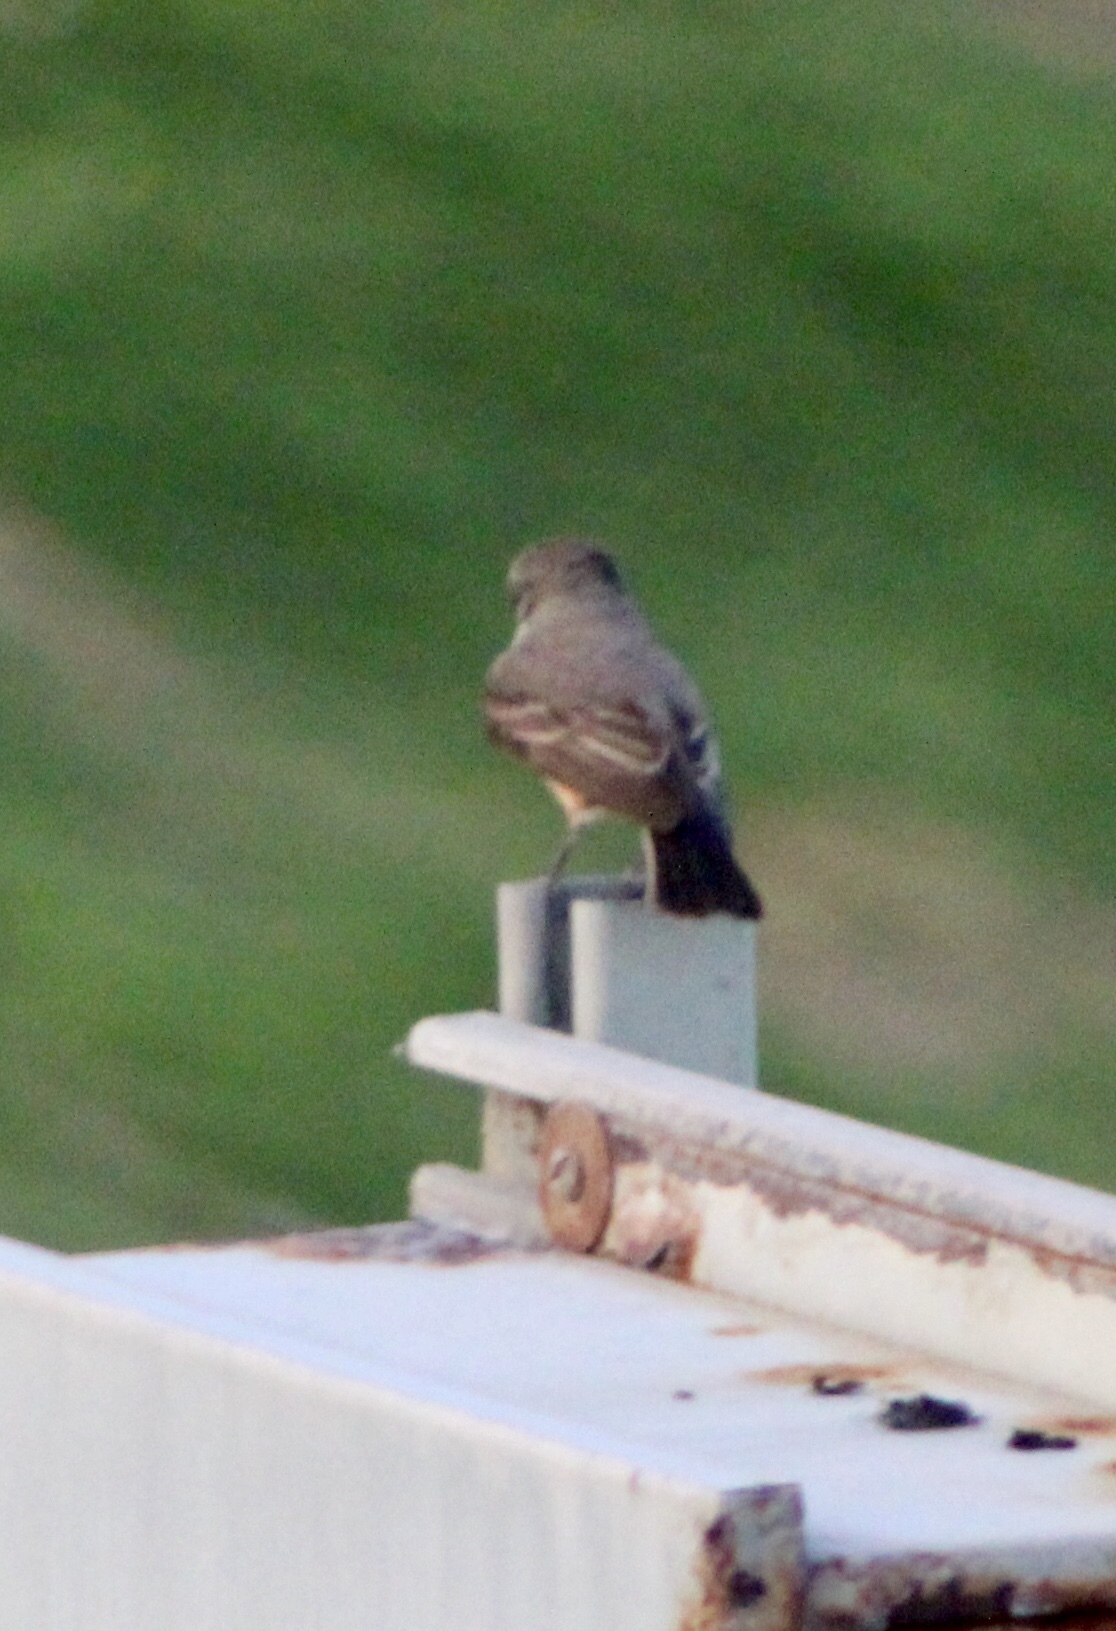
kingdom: Animalia
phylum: Chordata
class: Aves
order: Passeriformes
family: Tyrannidae
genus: Pyrocephalus
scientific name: Pyrocephalus rubinus
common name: Vermilion flycatcher
